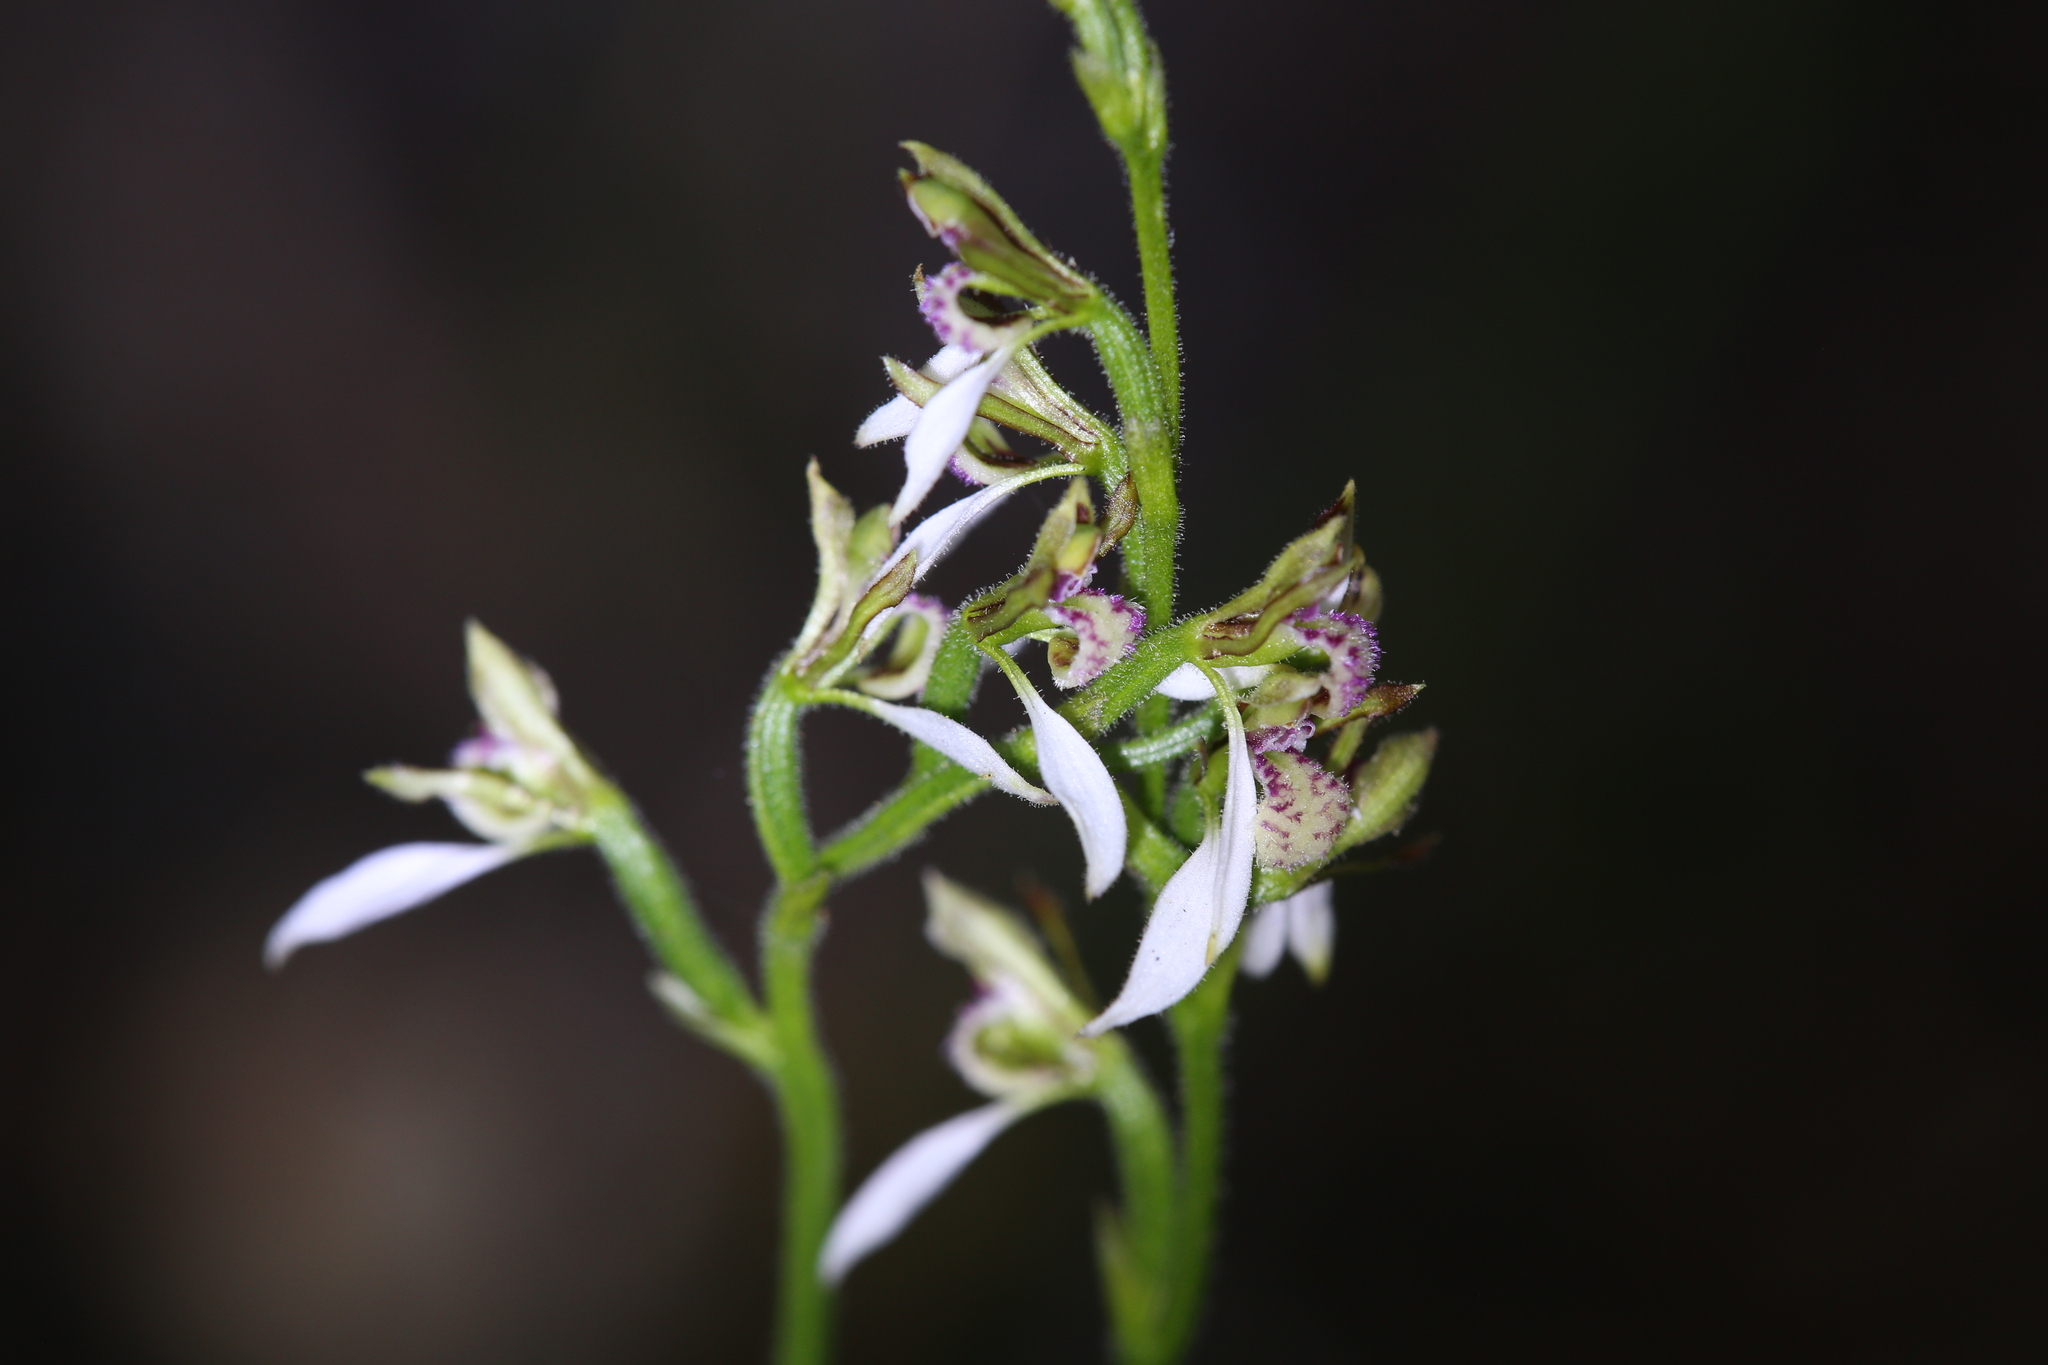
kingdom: Plantae
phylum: Tracheophyta
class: Liliopsida
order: Asparagales
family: Orchidaceae
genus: Eriochilus
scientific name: Eriochilus dilatatus
